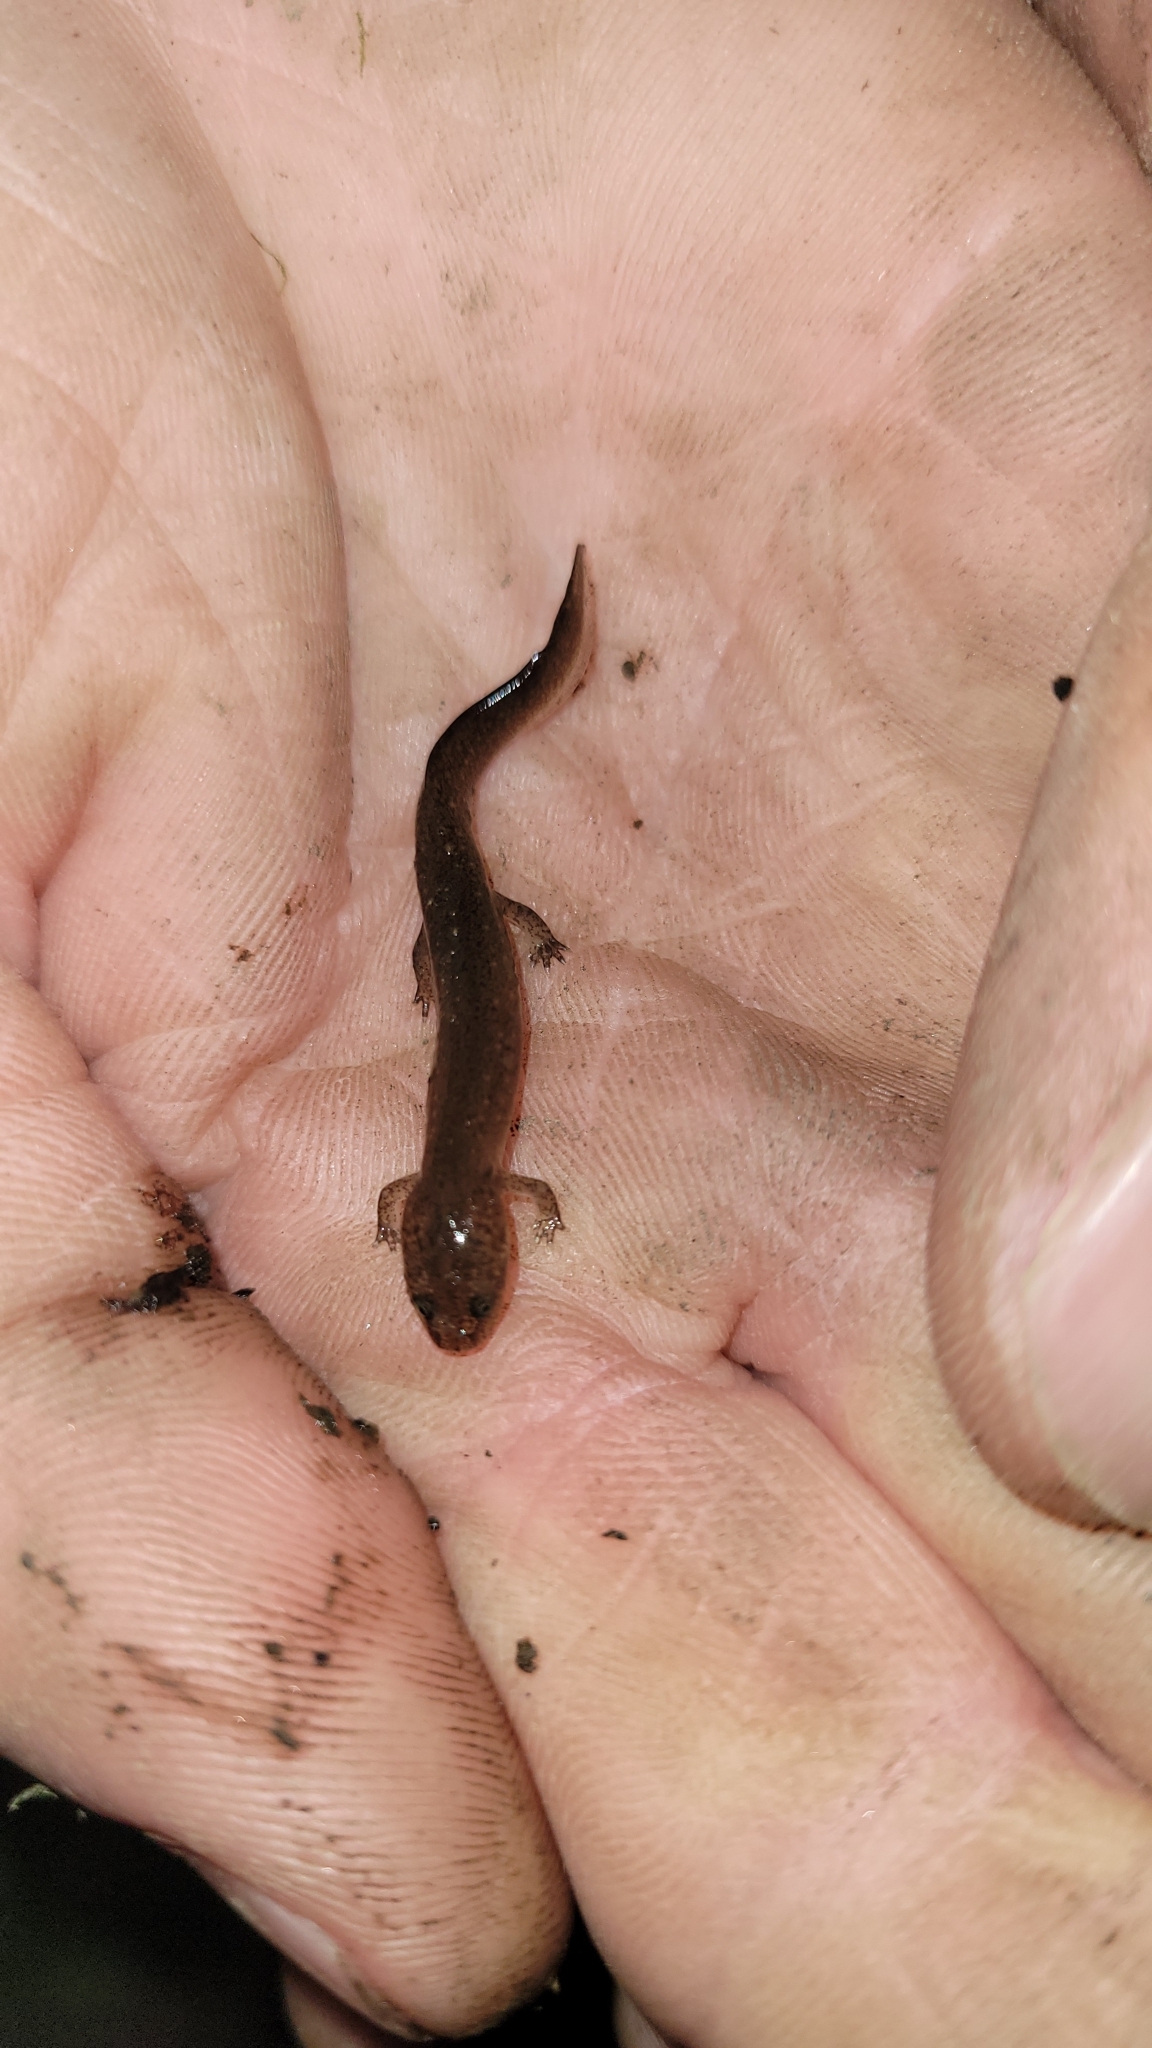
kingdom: Animalia
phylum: Chordata
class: Amphibia
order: Caudata
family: Plethodontidae
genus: Pseudotriton
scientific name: Pseudotriton ruber
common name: Red salamander
